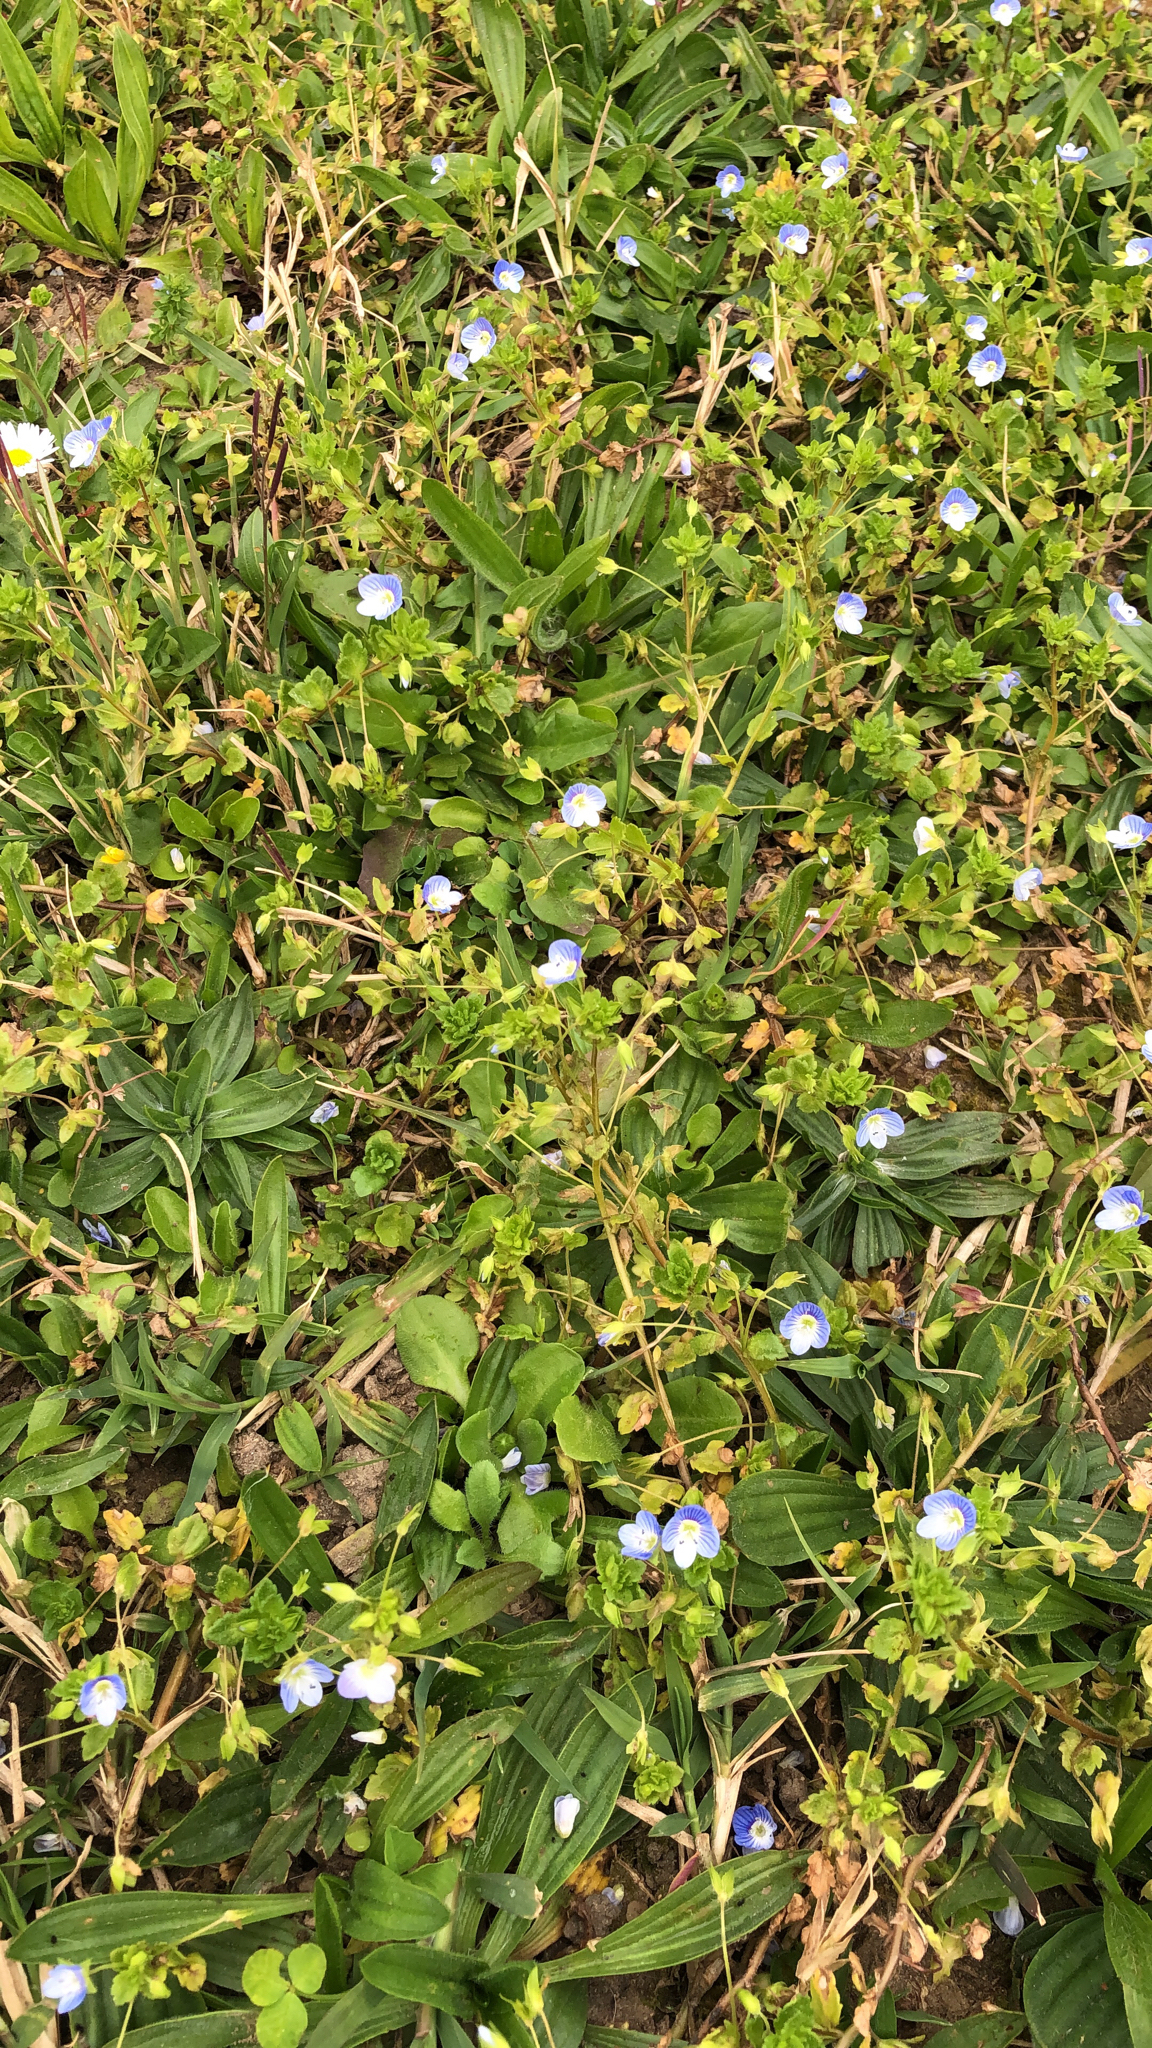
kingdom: Plantae
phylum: Tracheophyta
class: Magnoliopsida
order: Lamiales
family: Plantaginaceae
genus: Veronica
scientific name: Veronica persica
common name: Common field-speedwell
